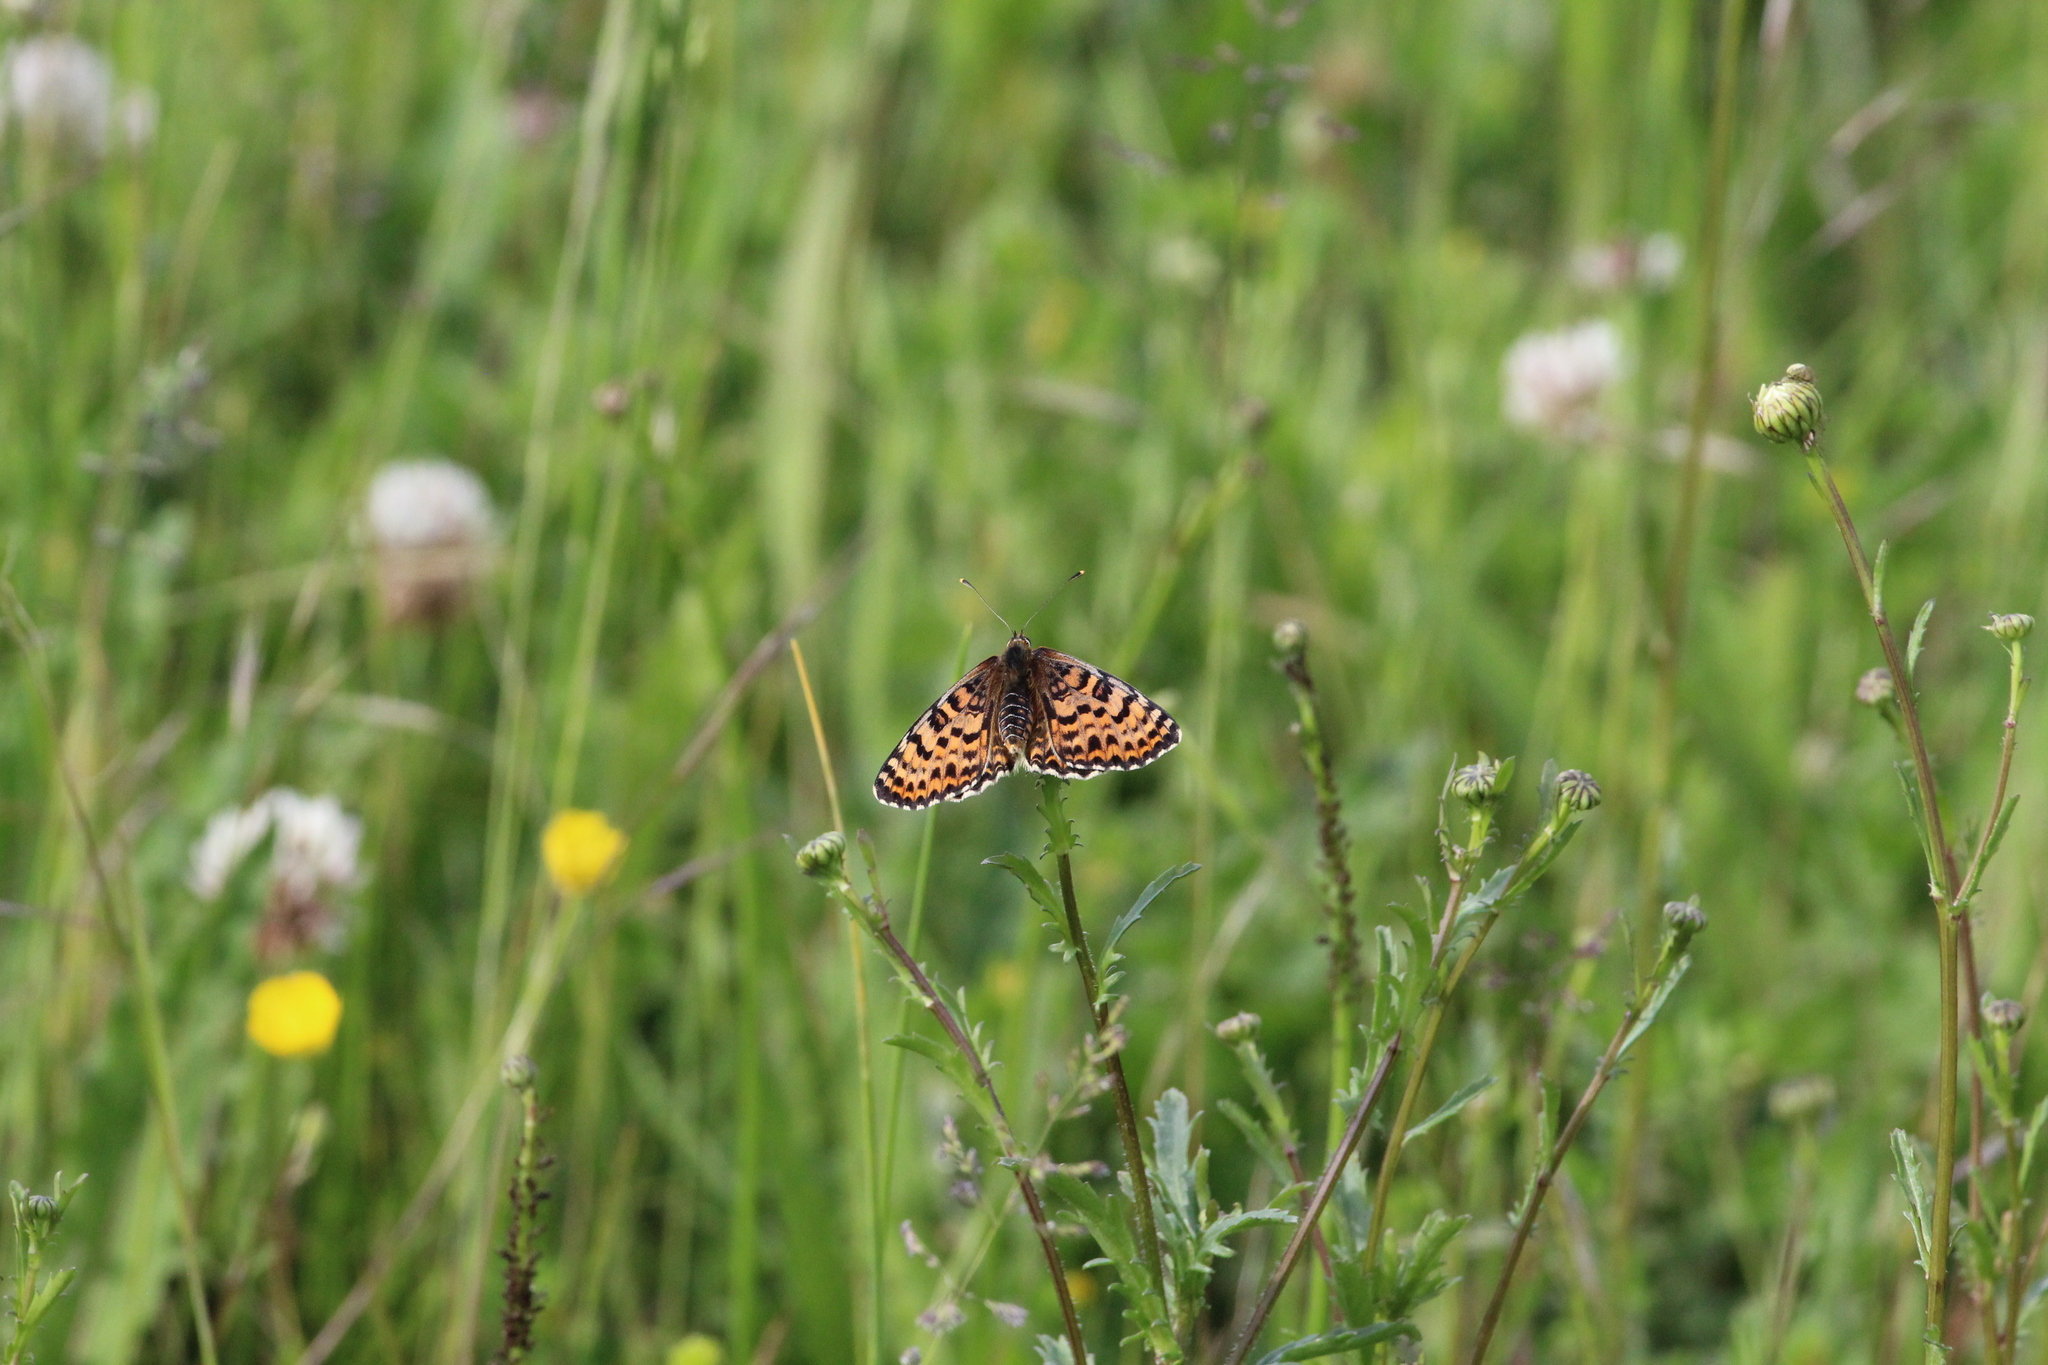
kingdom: Animalia
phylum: Arthropoda
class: Insecta
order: Lepidoptera
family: Nymphalidae
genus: Melitaea
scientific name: Melitaea didyma
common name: Spotted fritillary
